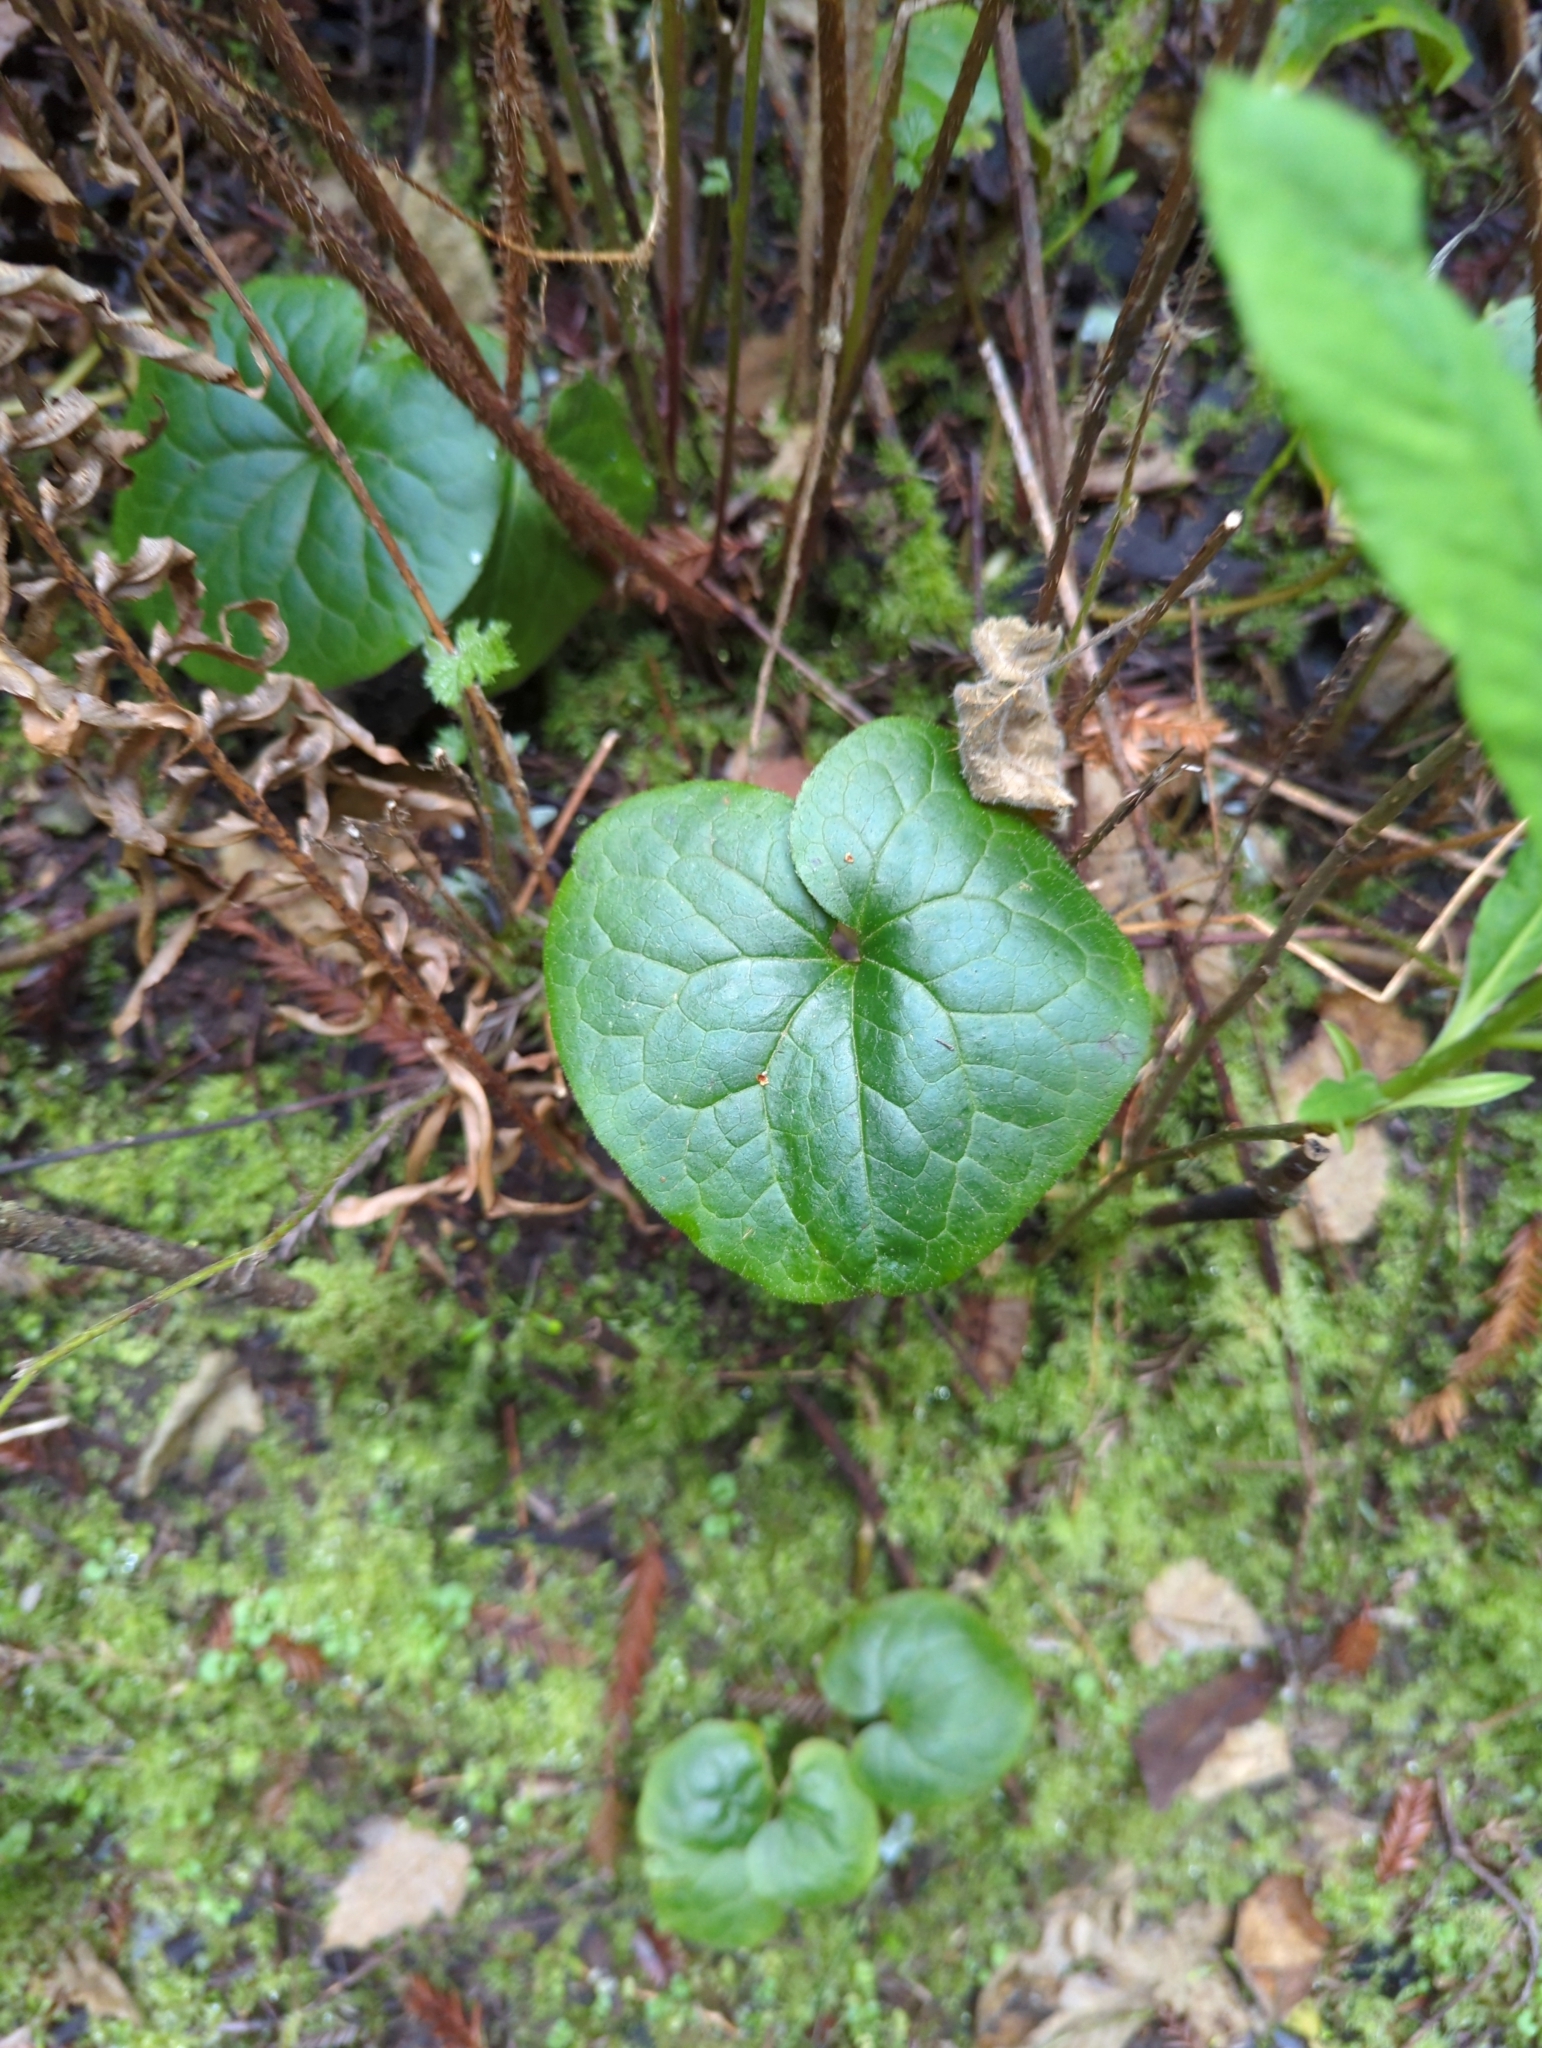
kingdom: Plantae
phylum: Tracheophyta
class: Magnoliopsida
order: Piperales
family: Aristolochiaceae
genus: Asarum
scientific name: Asarum caudatum
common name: Wild ginger
